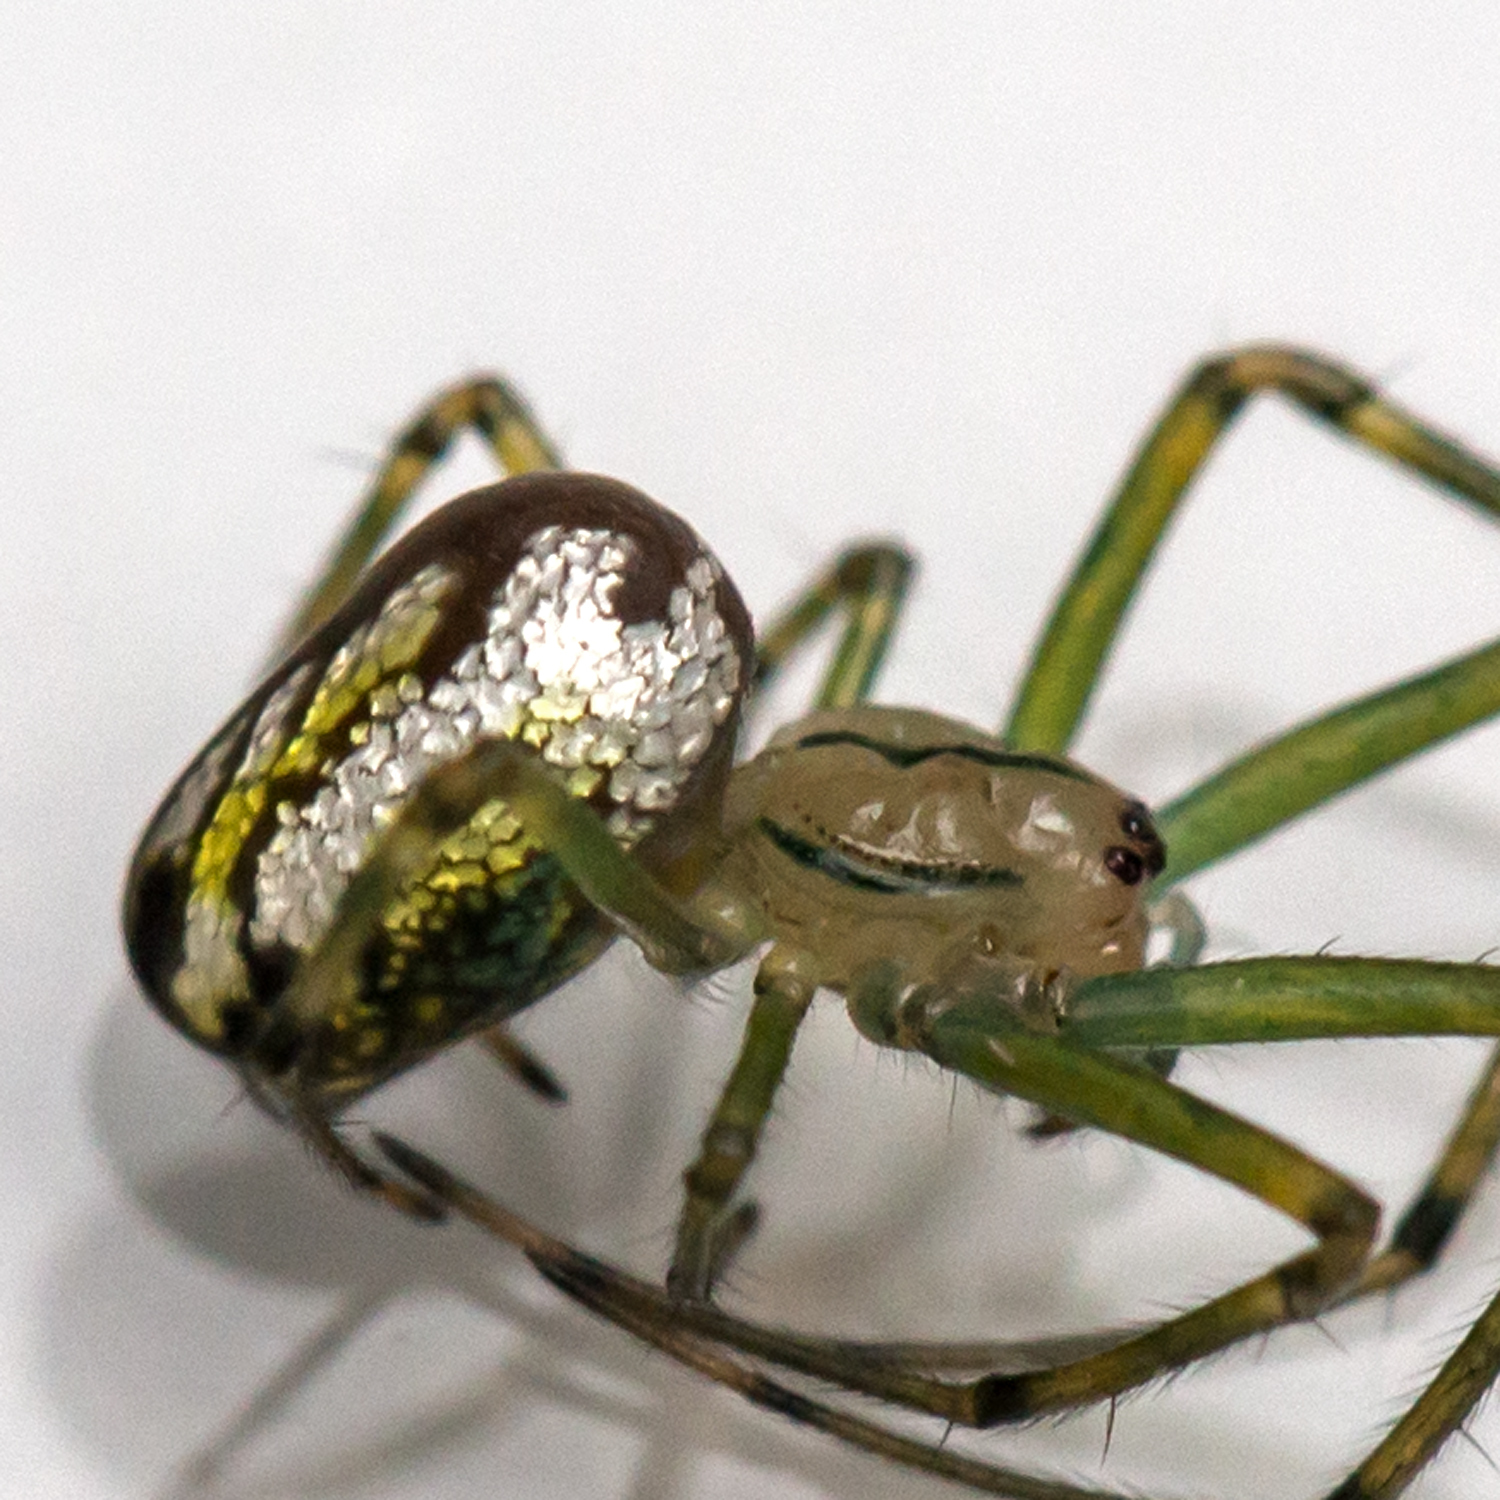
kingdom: Animalia
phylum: Arthropoda
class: Arachnida
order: Araneae
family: Tetragnathidae
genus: Leucauge
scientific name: Leucauge venusta
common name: Longjawed orb weavers
